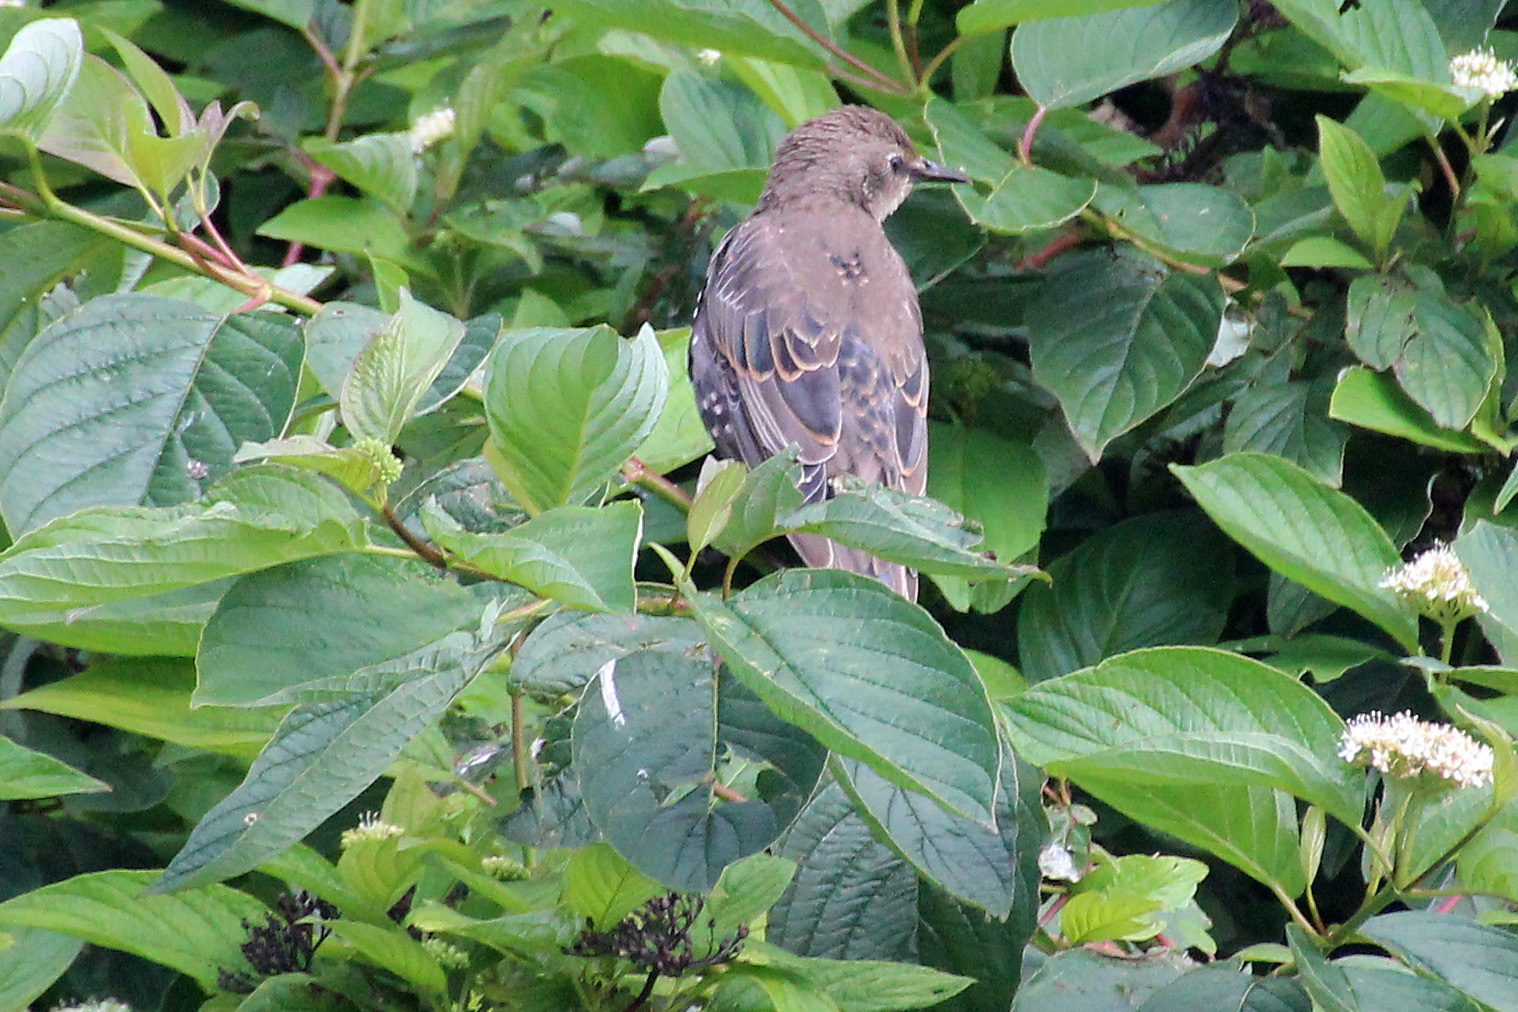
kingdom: Animalia
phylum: Chordata
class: Aves
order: Passeriformes
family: Sturnidae
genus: Sturnus
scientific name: Sturnus vulgaris
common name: Common starling
